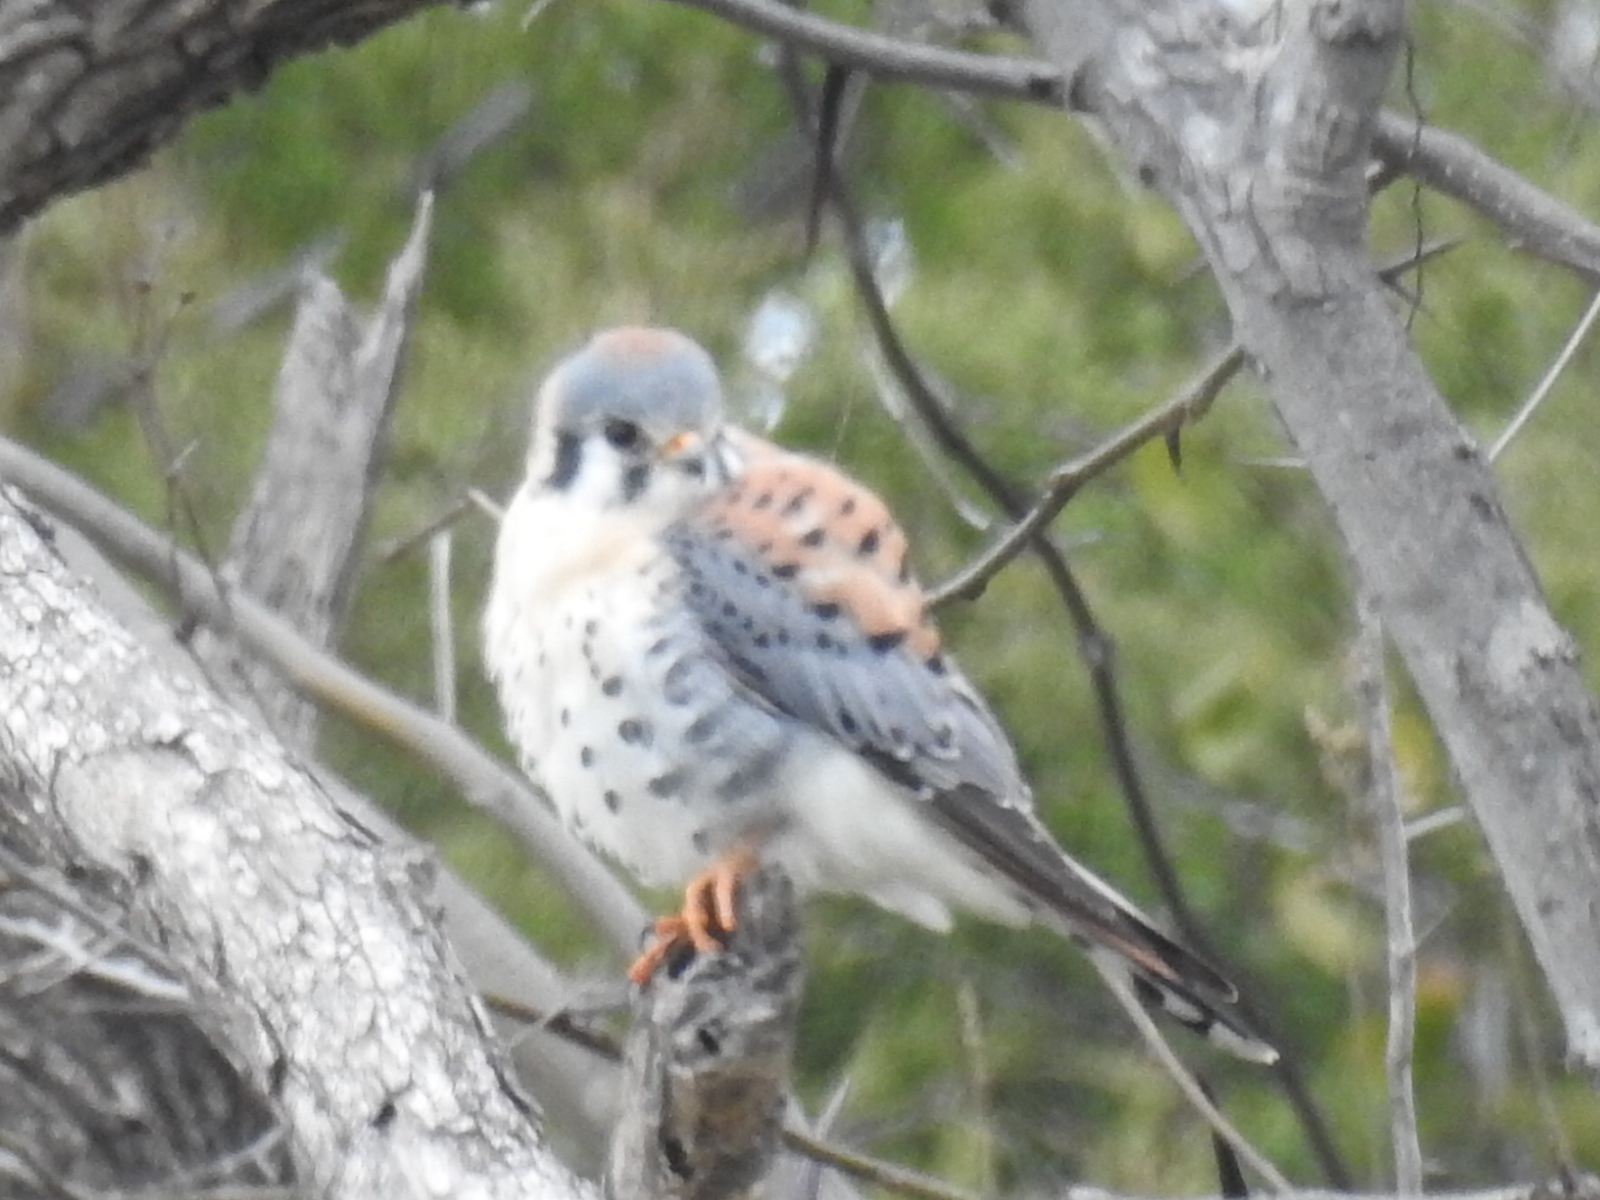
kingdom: Animalia
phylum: Chordata
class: Aves
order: Falconiformes
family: Falconidae
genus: Falco
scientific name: Falco sparverius
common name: American kestrel
